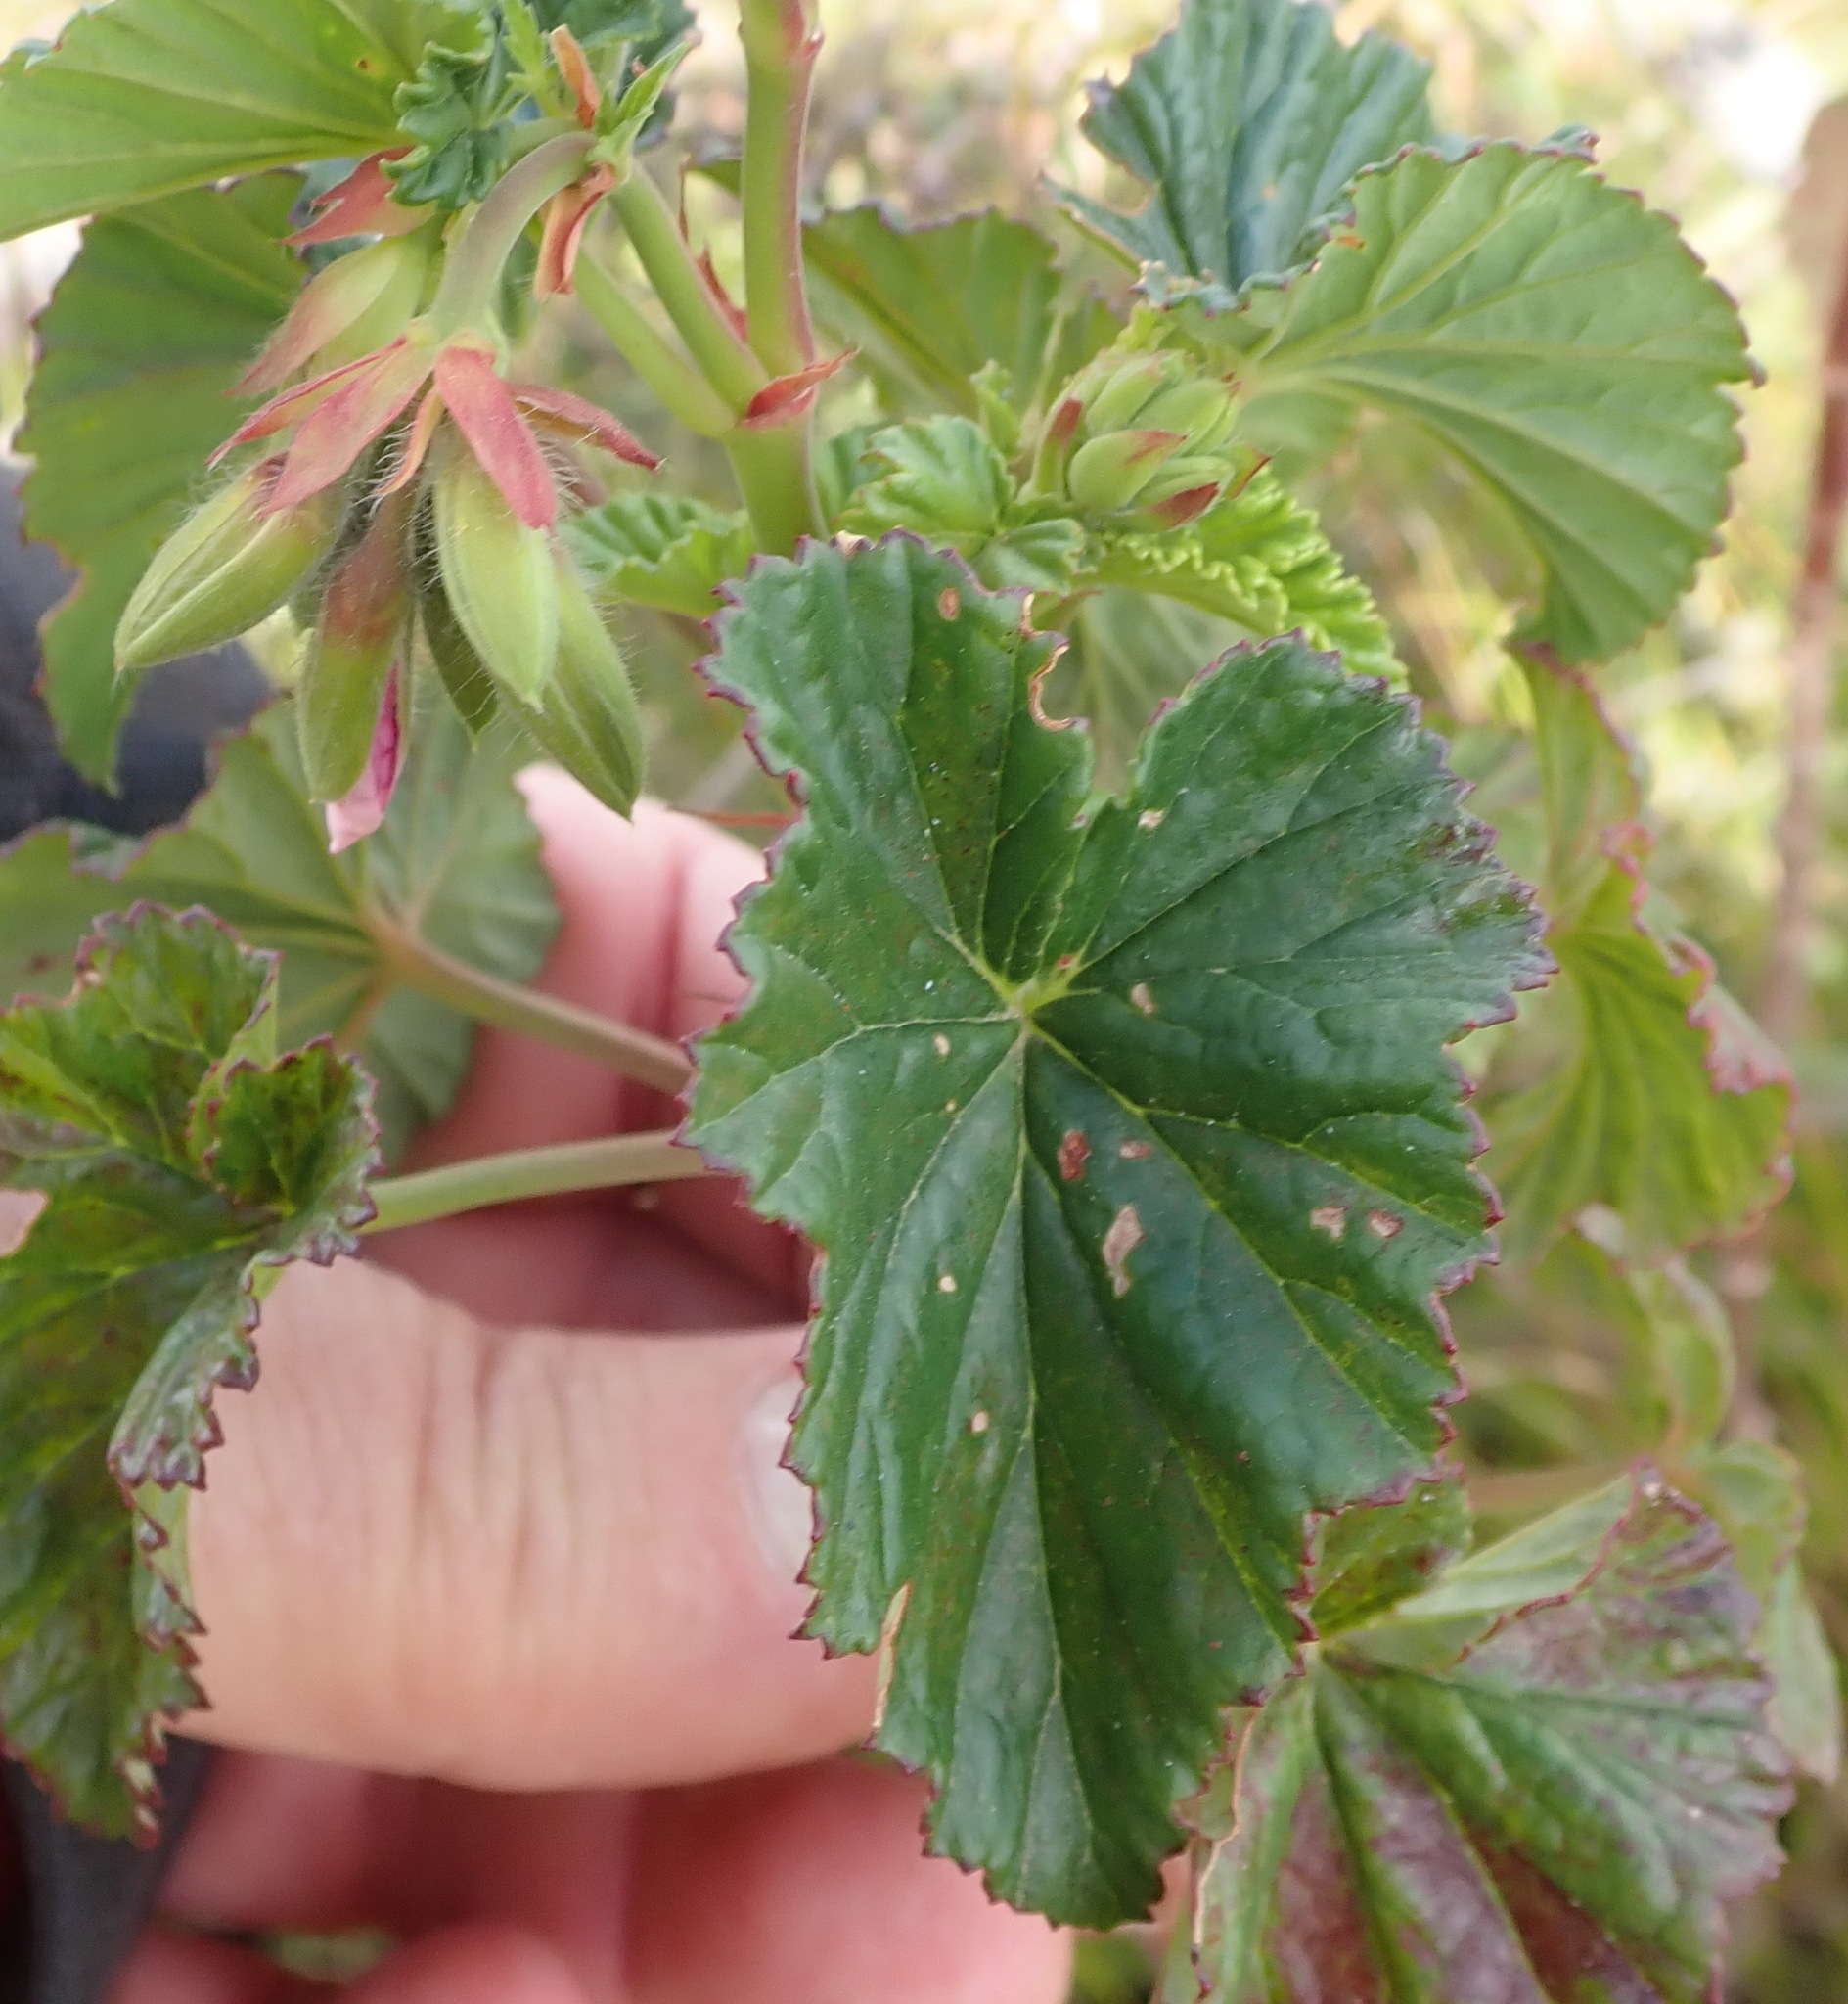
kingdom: Plantae
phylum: Tracheophyta
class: Magnoliopsida
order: Geraniales
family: Geraniaceae
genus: Pelargonium
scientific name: Pelargonium cordifolium
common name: Heart-leaf pelargonium
